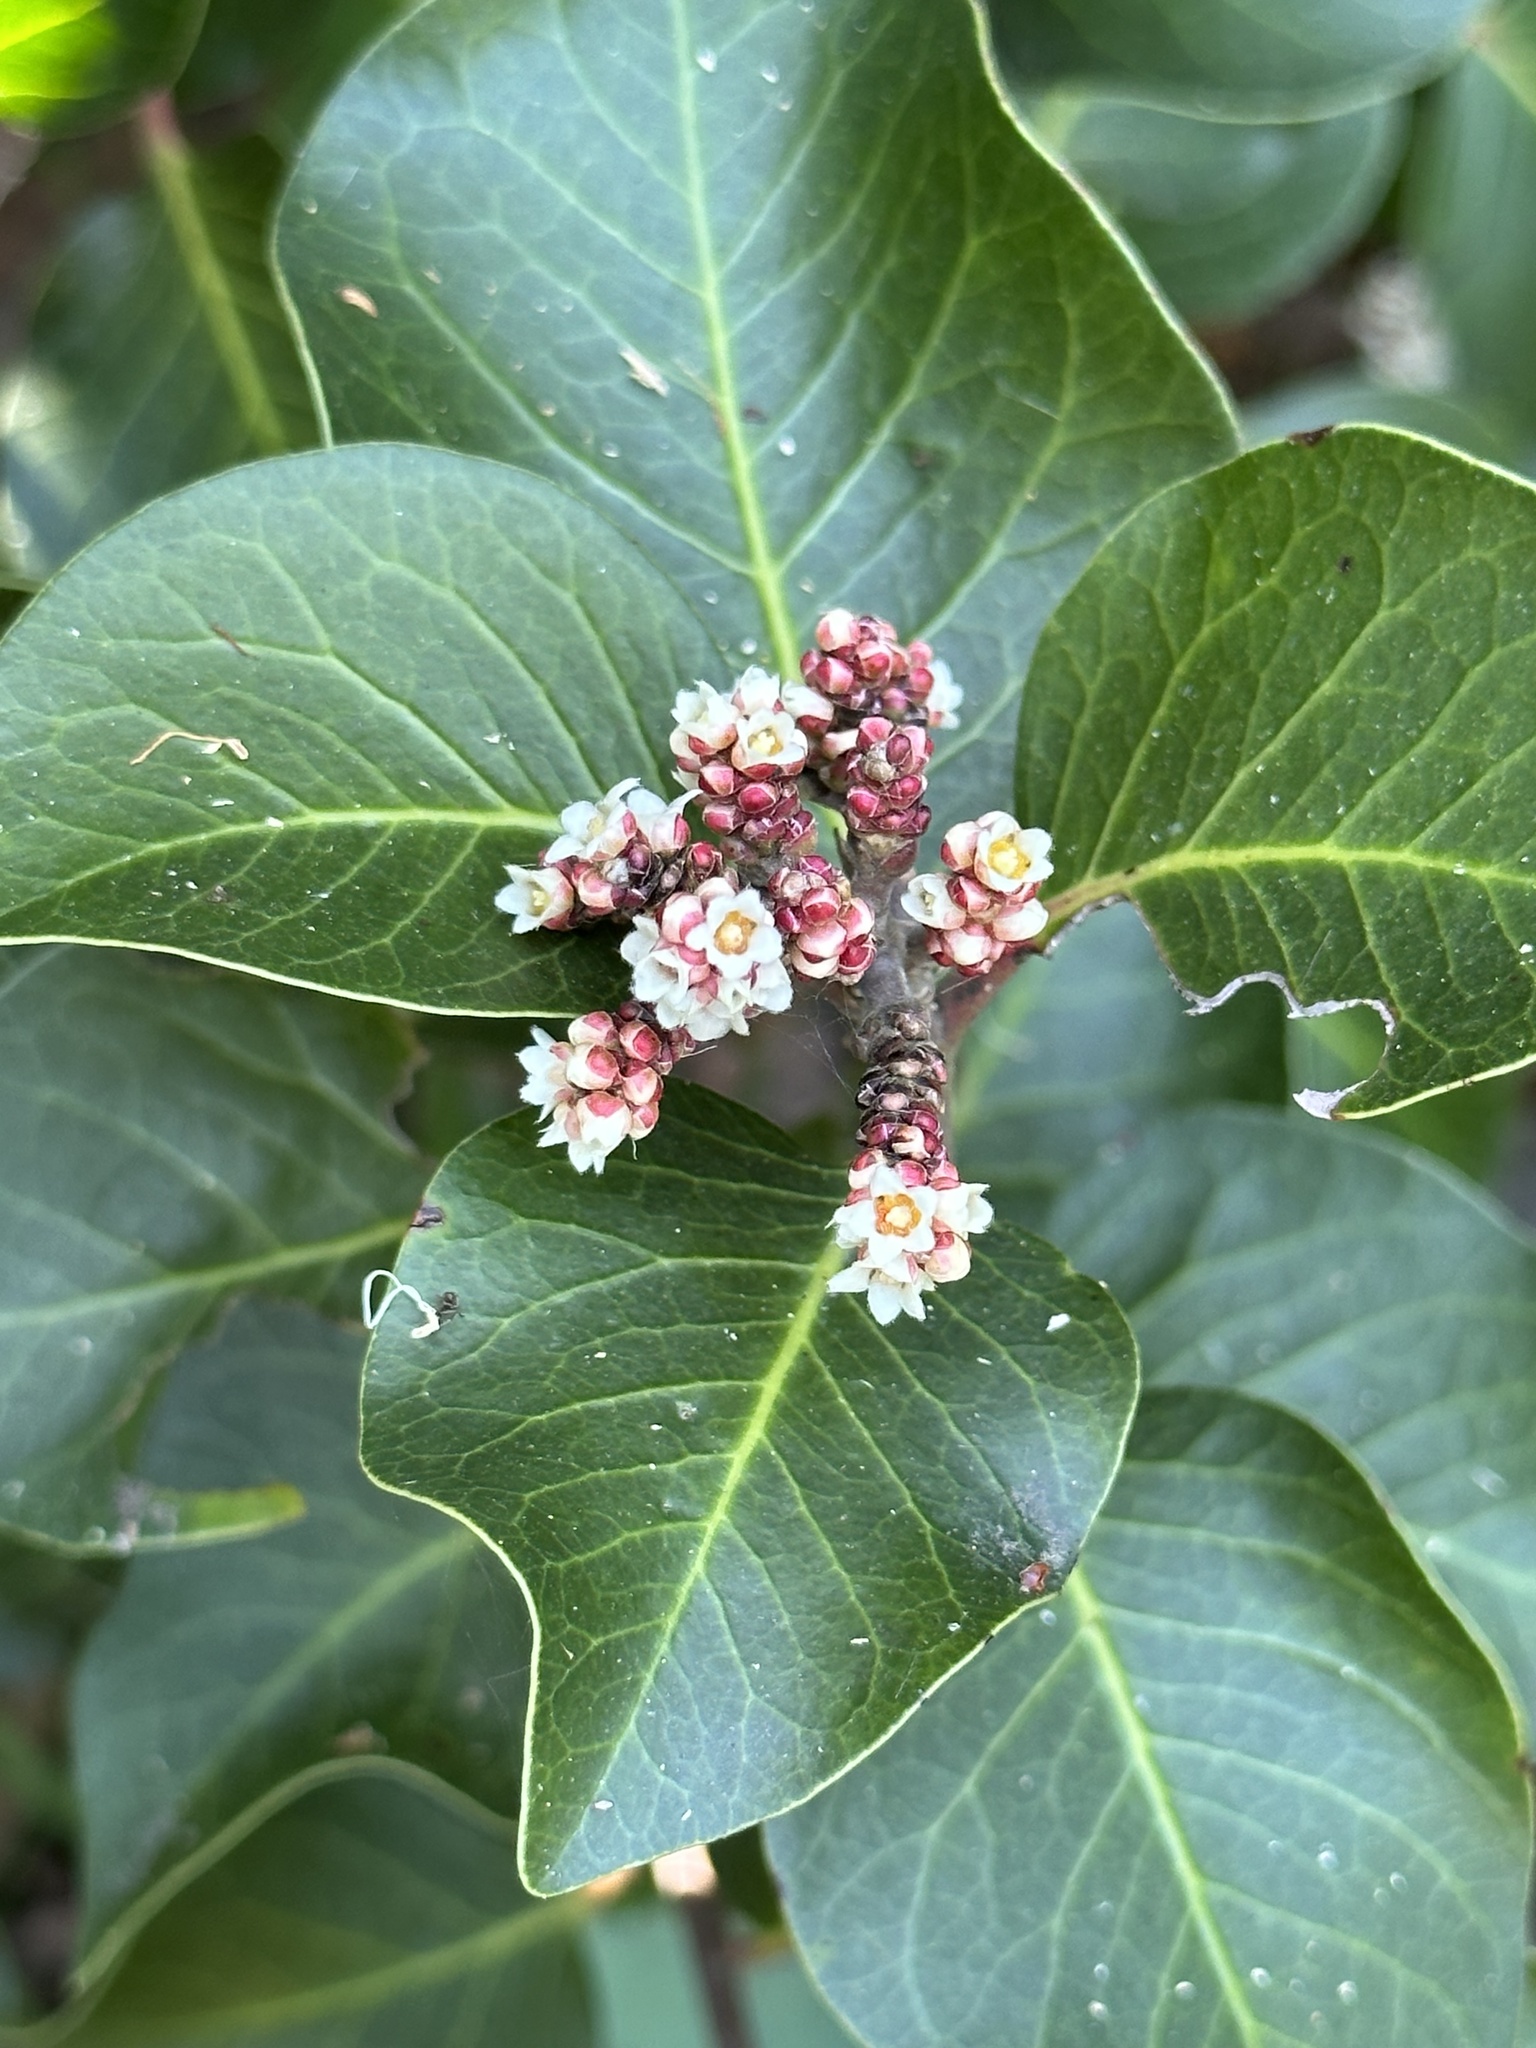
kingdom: Plantae
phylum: Tracheophyta
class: Magnoliopsida
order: Sapindales
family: Anacardiaceae
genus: Rhus
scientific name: Rhus ovata
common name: Sugar sumac
